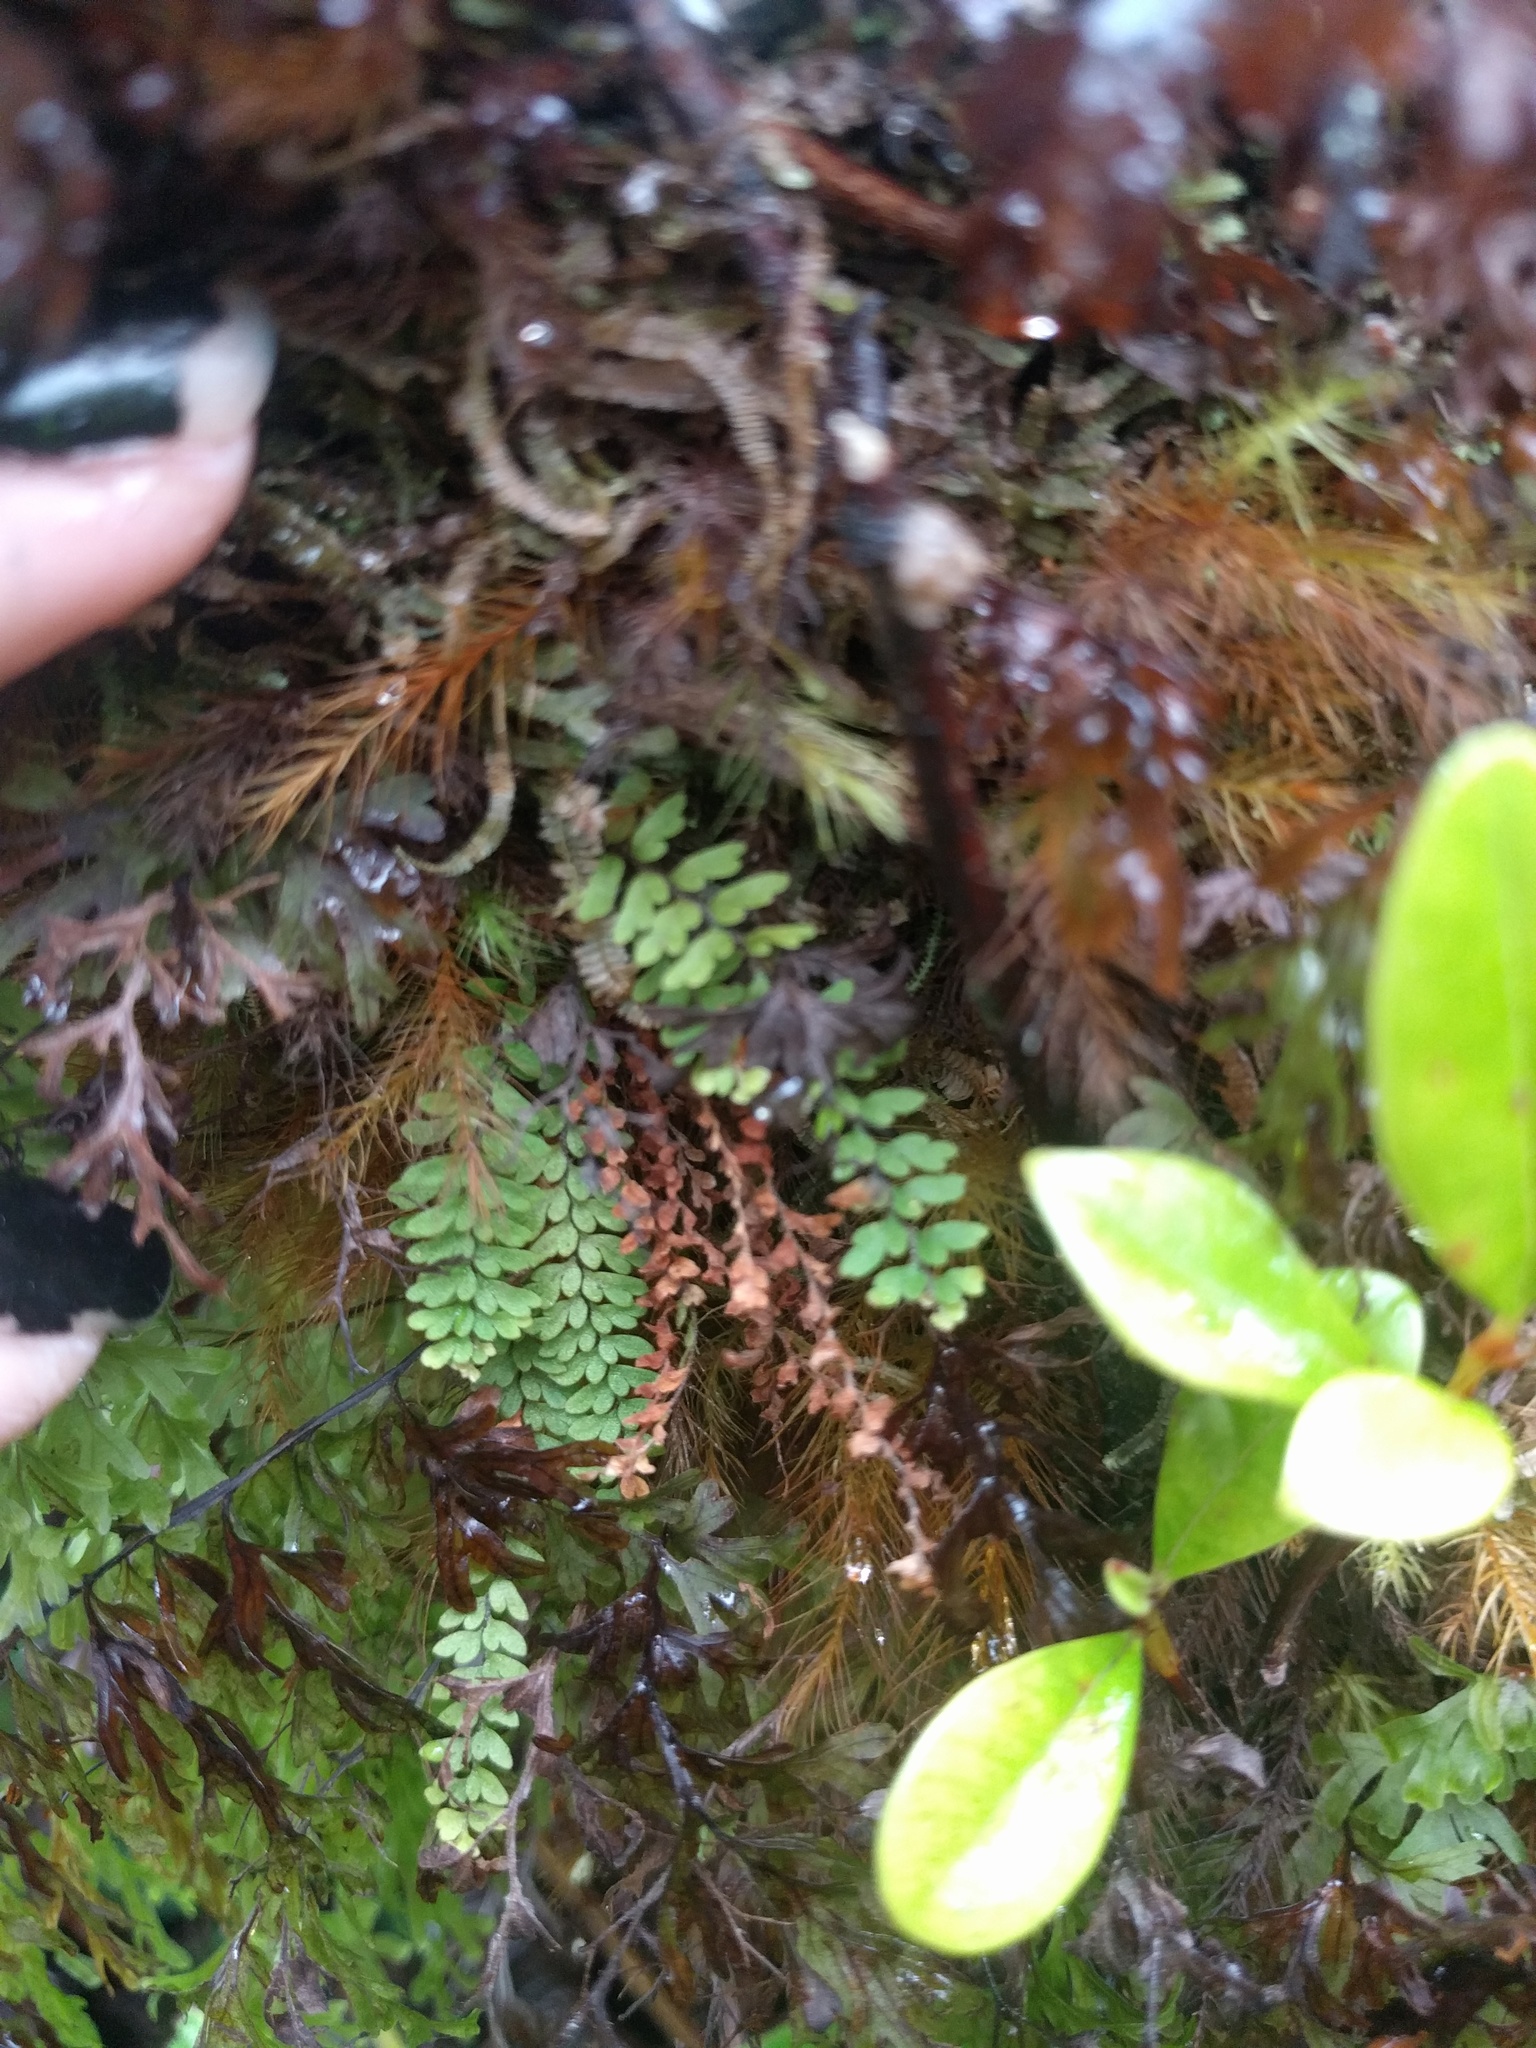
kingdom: Plantae
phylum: Tracheophyta
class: Polypodiopsida
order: Polypodiales
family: Polypodiaceae
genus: Adenophorus
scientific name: Adenophorus hymenophylloides
